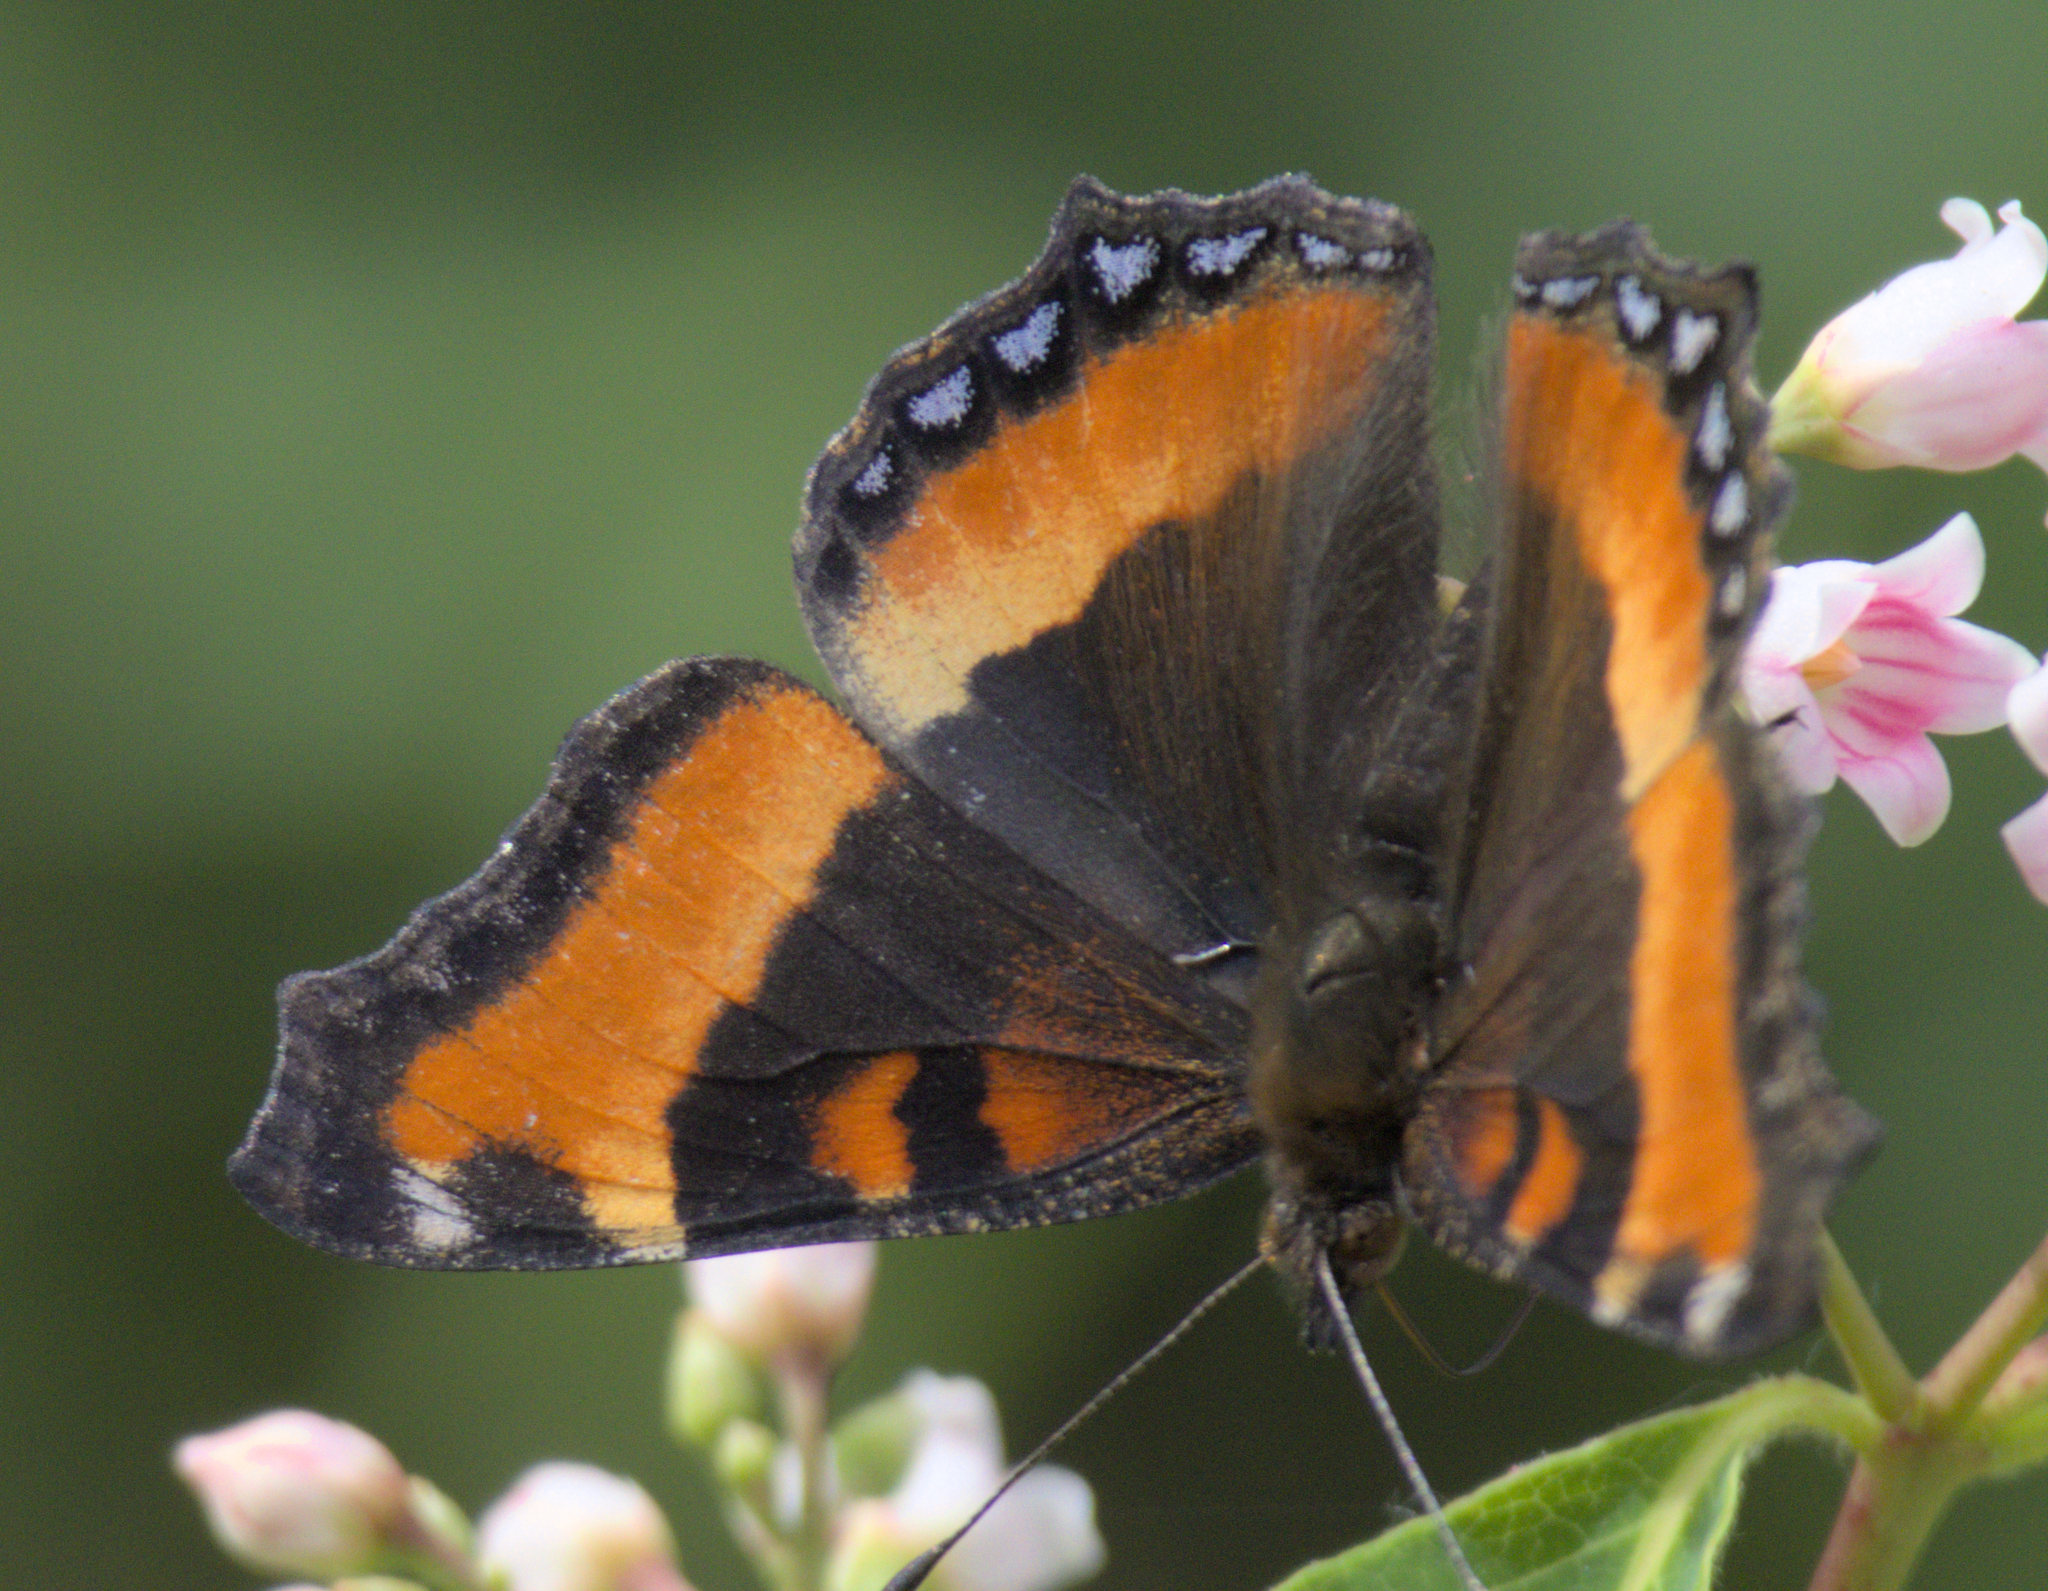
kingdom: Animalia
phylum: Arthropoda
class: Insecta
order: Lepidoptera
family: Nymphalidae
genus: Aglais
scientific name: Aglais milberti
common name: Milbert's tortoiseshell
